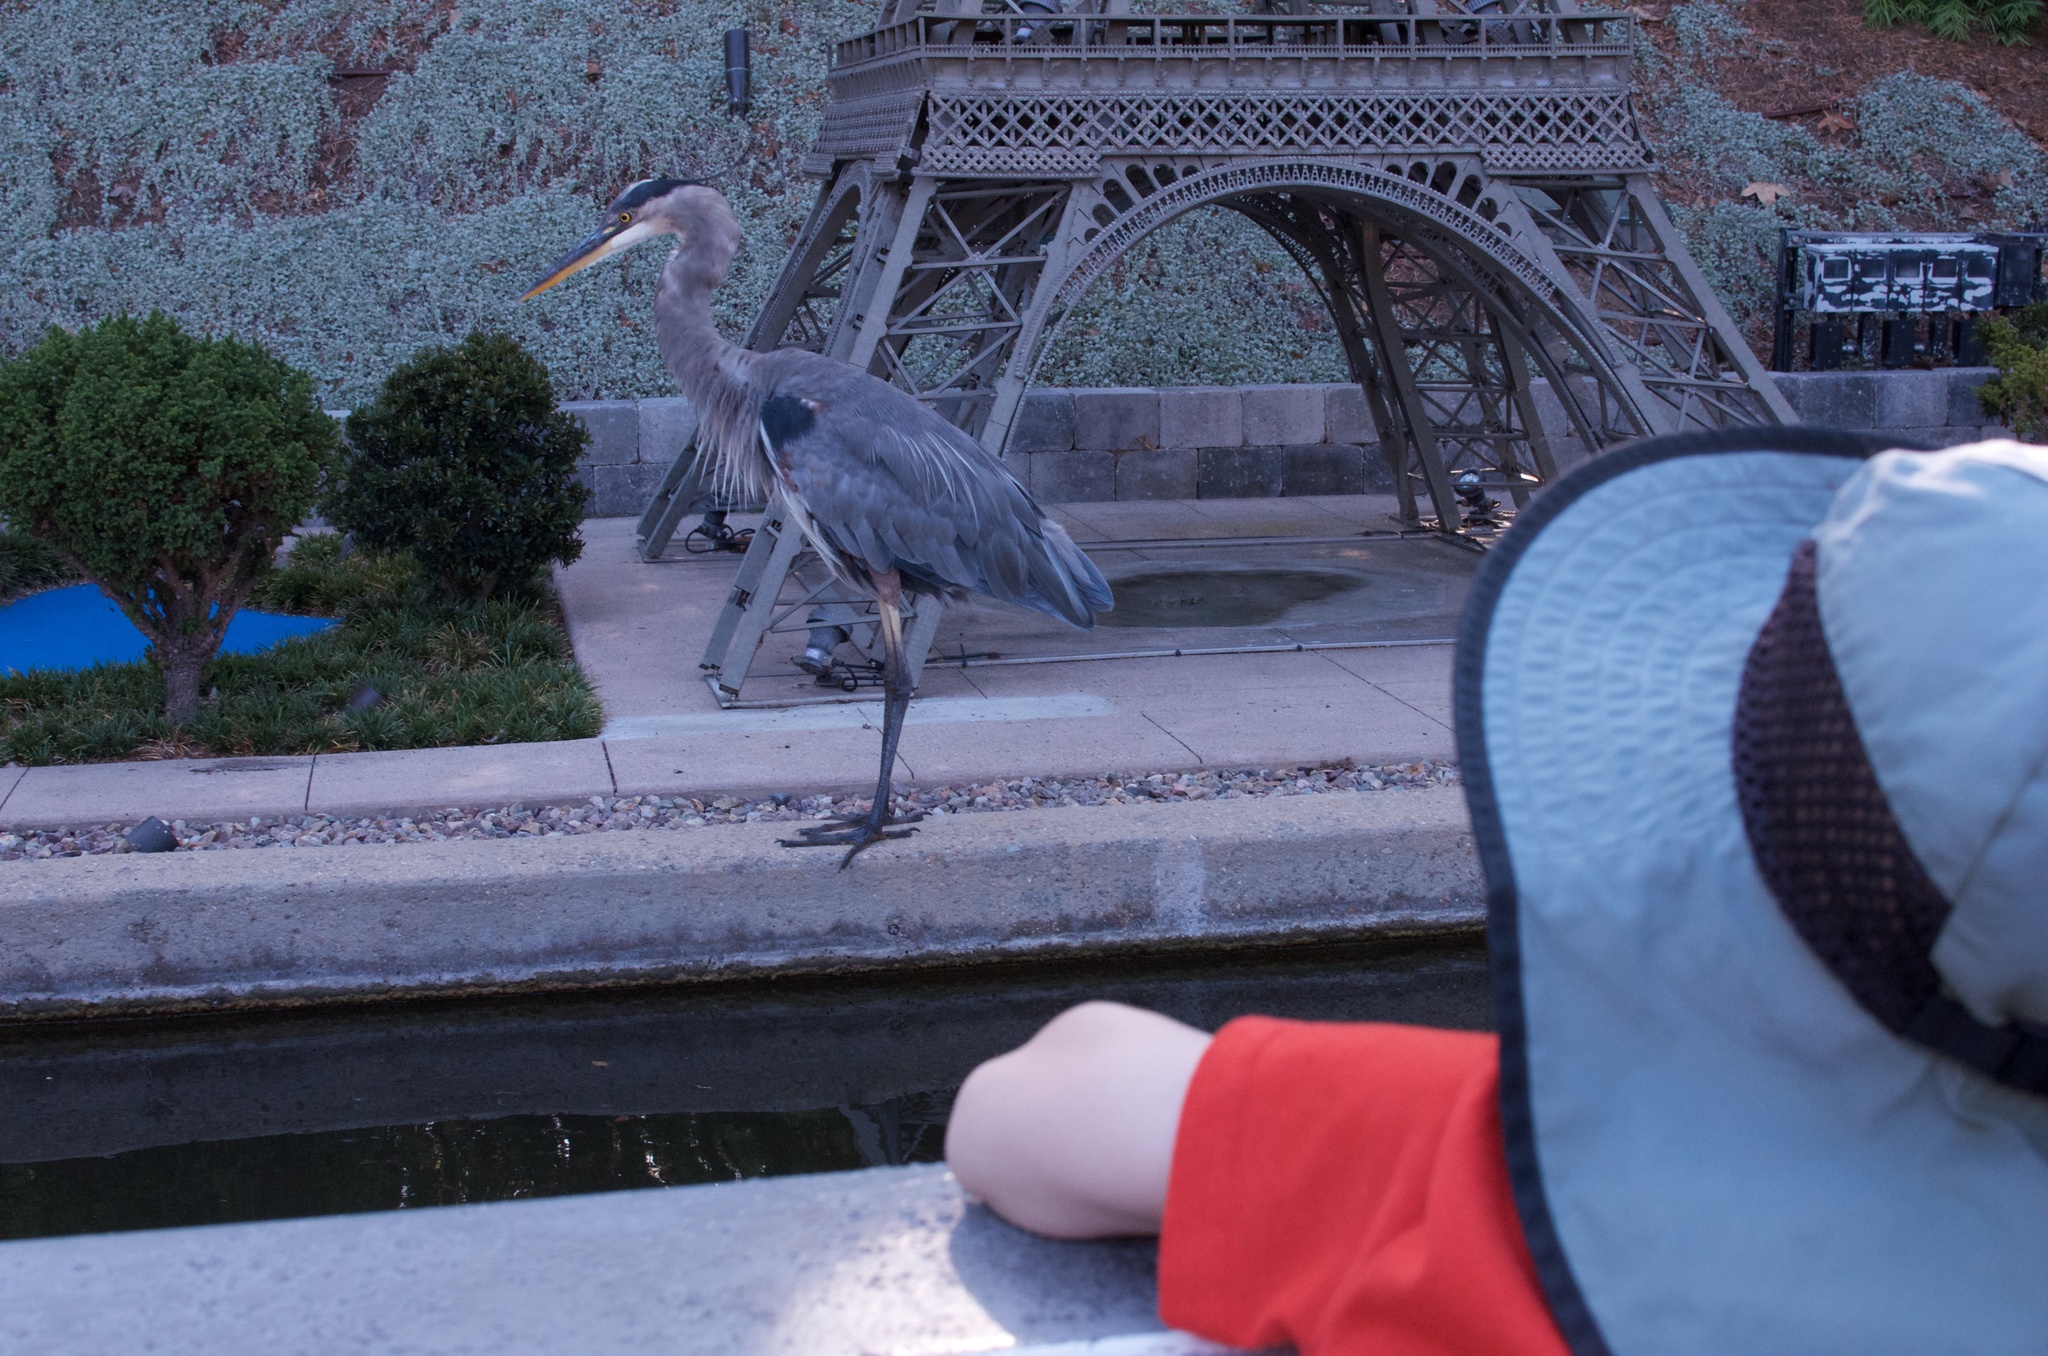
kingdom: Animalia
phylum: Chordata
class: Aves
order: Pelecaniformes
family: Ardeidae
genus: Ardea
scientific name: Ardea herodias
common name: Great blue heron
